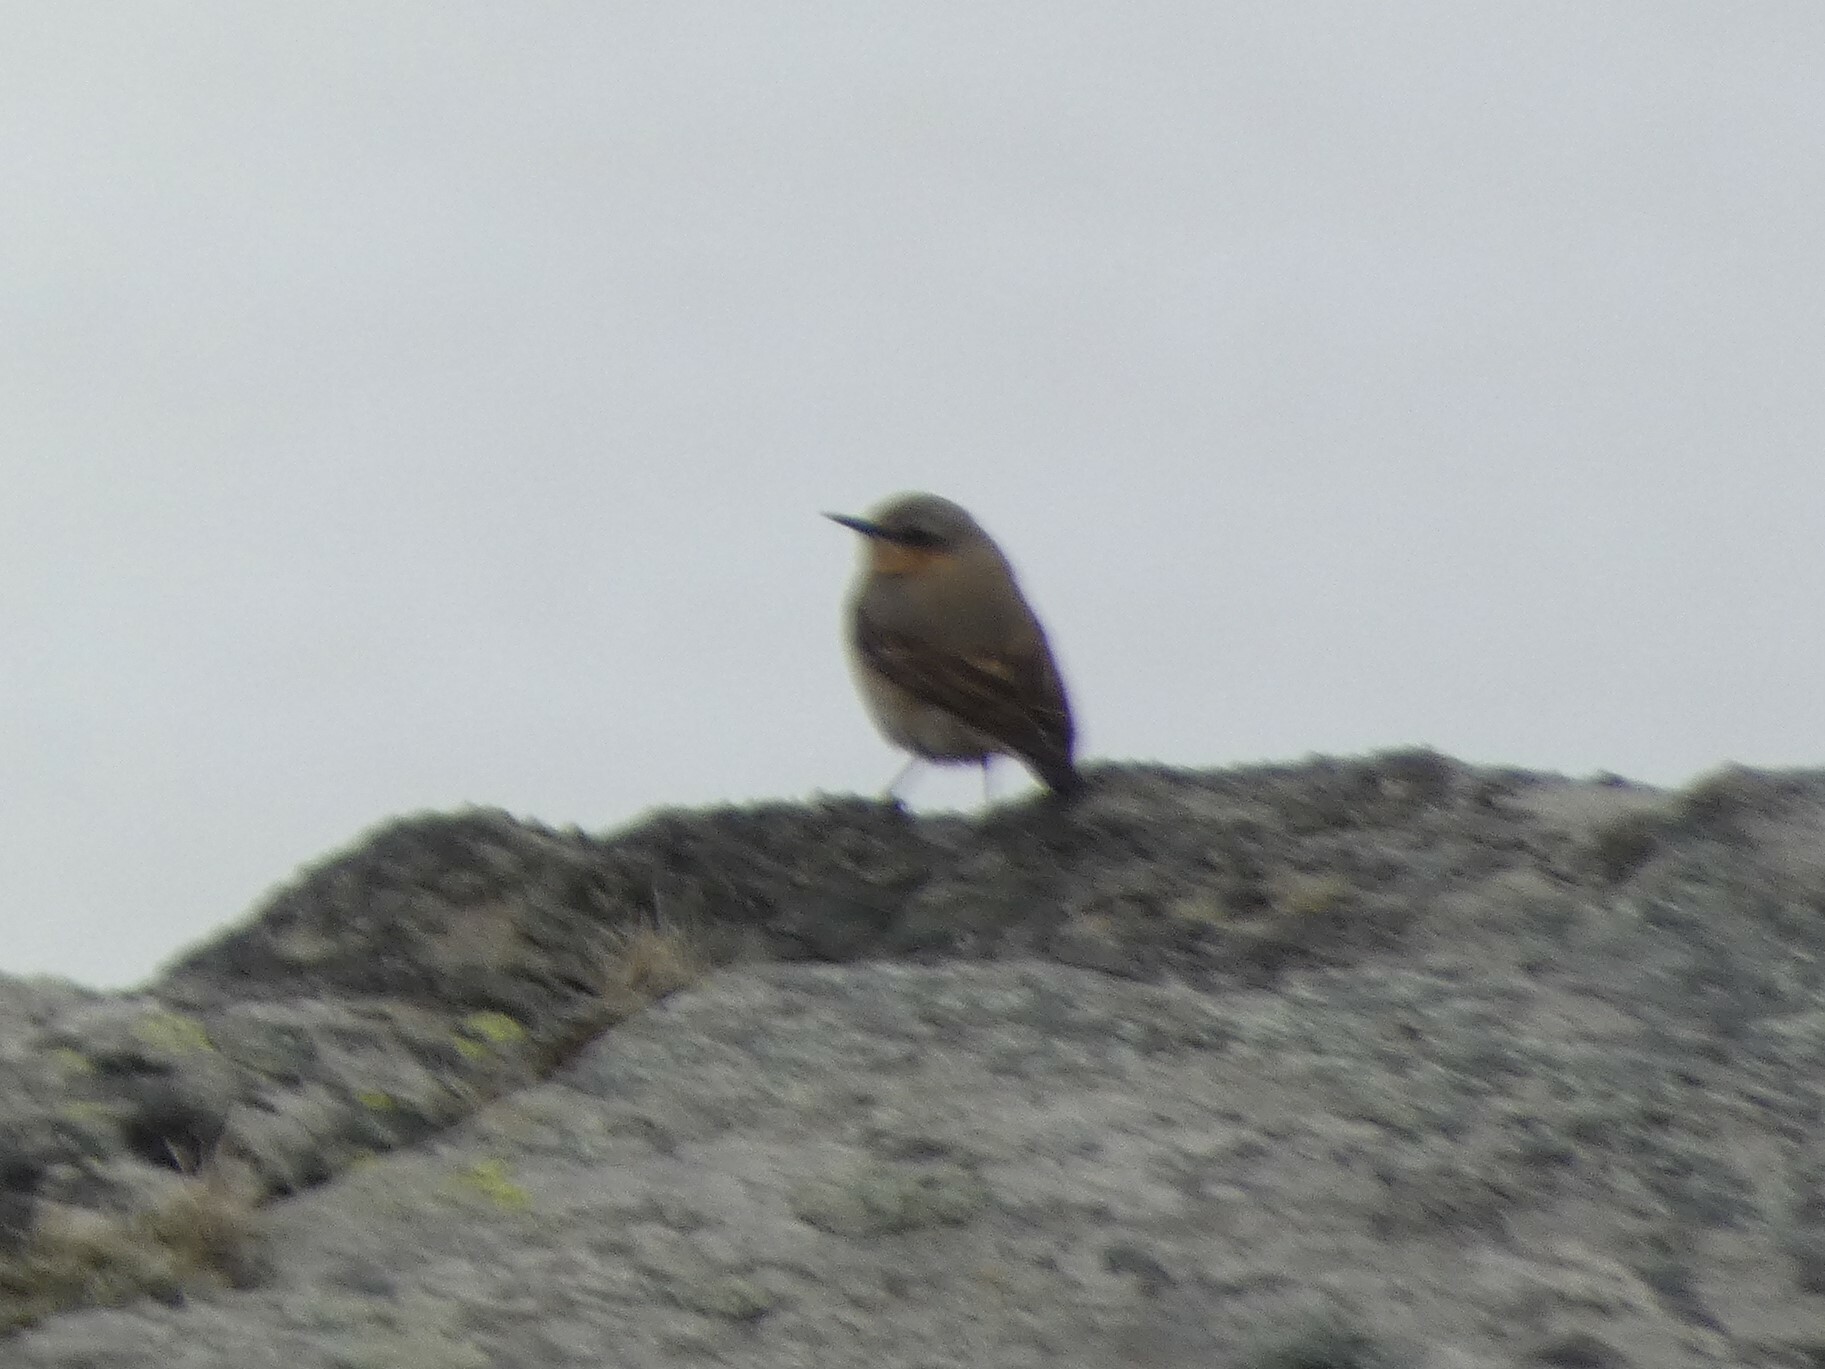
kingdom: Animalia
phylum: Chordata
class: Aves
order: Passeriformes
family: Muscicapidae
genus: Oenanthe
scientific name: Oenanthe oenanthe
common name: Northern wheatear
